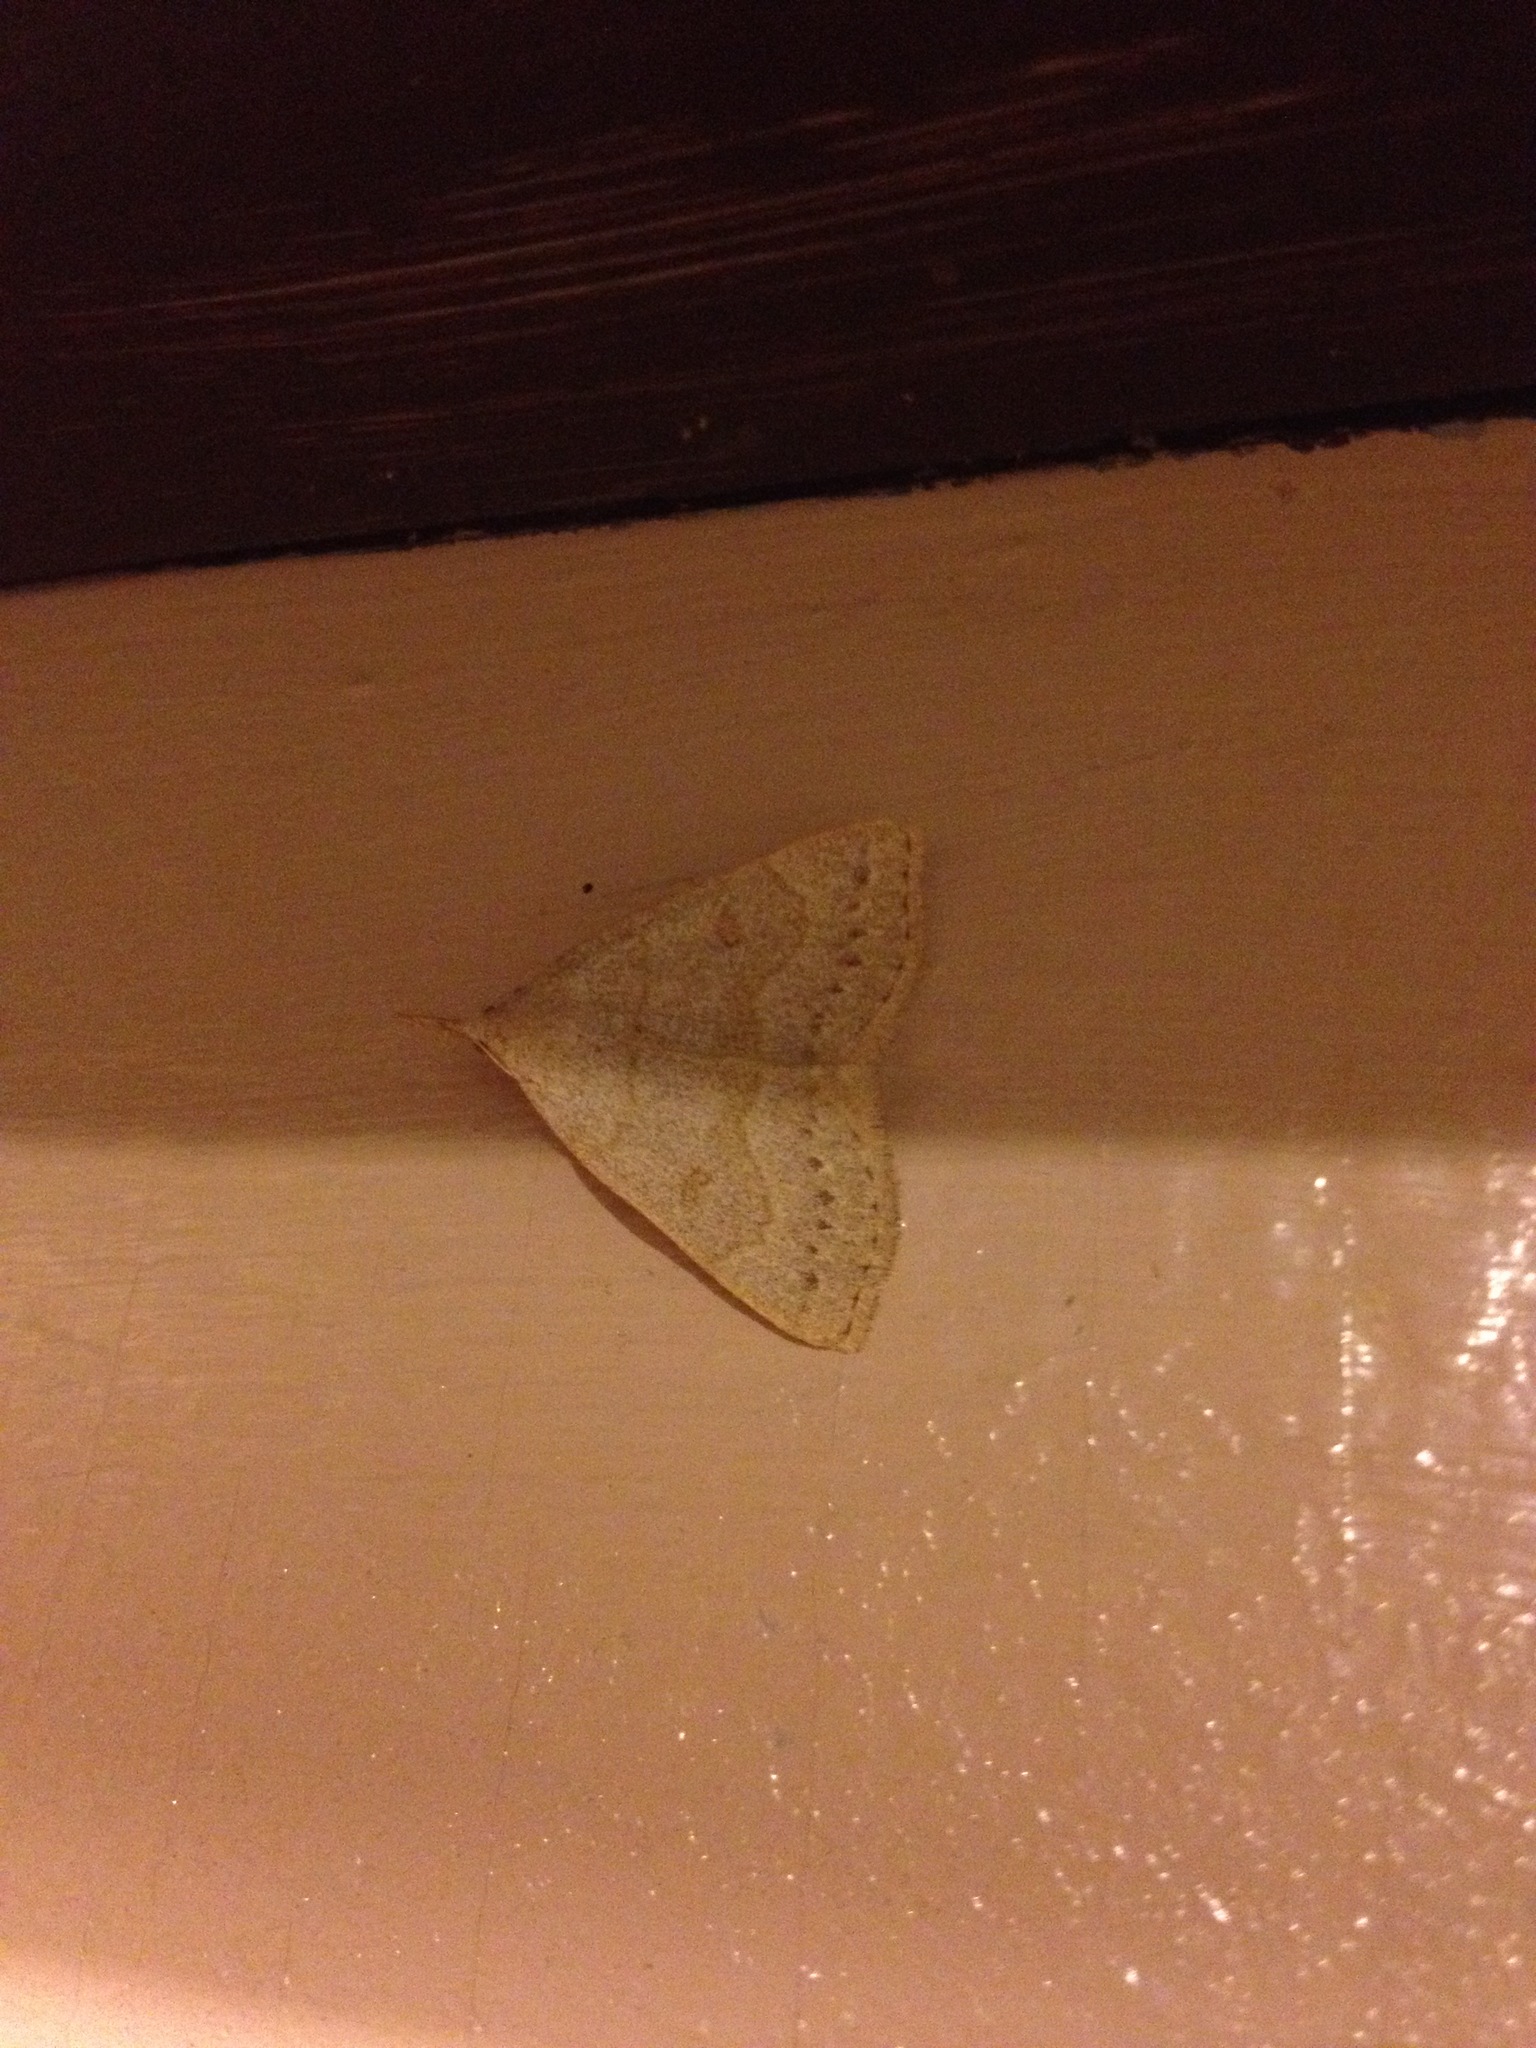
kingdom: Animalia
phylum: Arthropoda
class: Insecta
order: Lepidoptera
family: Erebidae
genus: Macrochilo
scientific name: Macrochilo morbidalis
